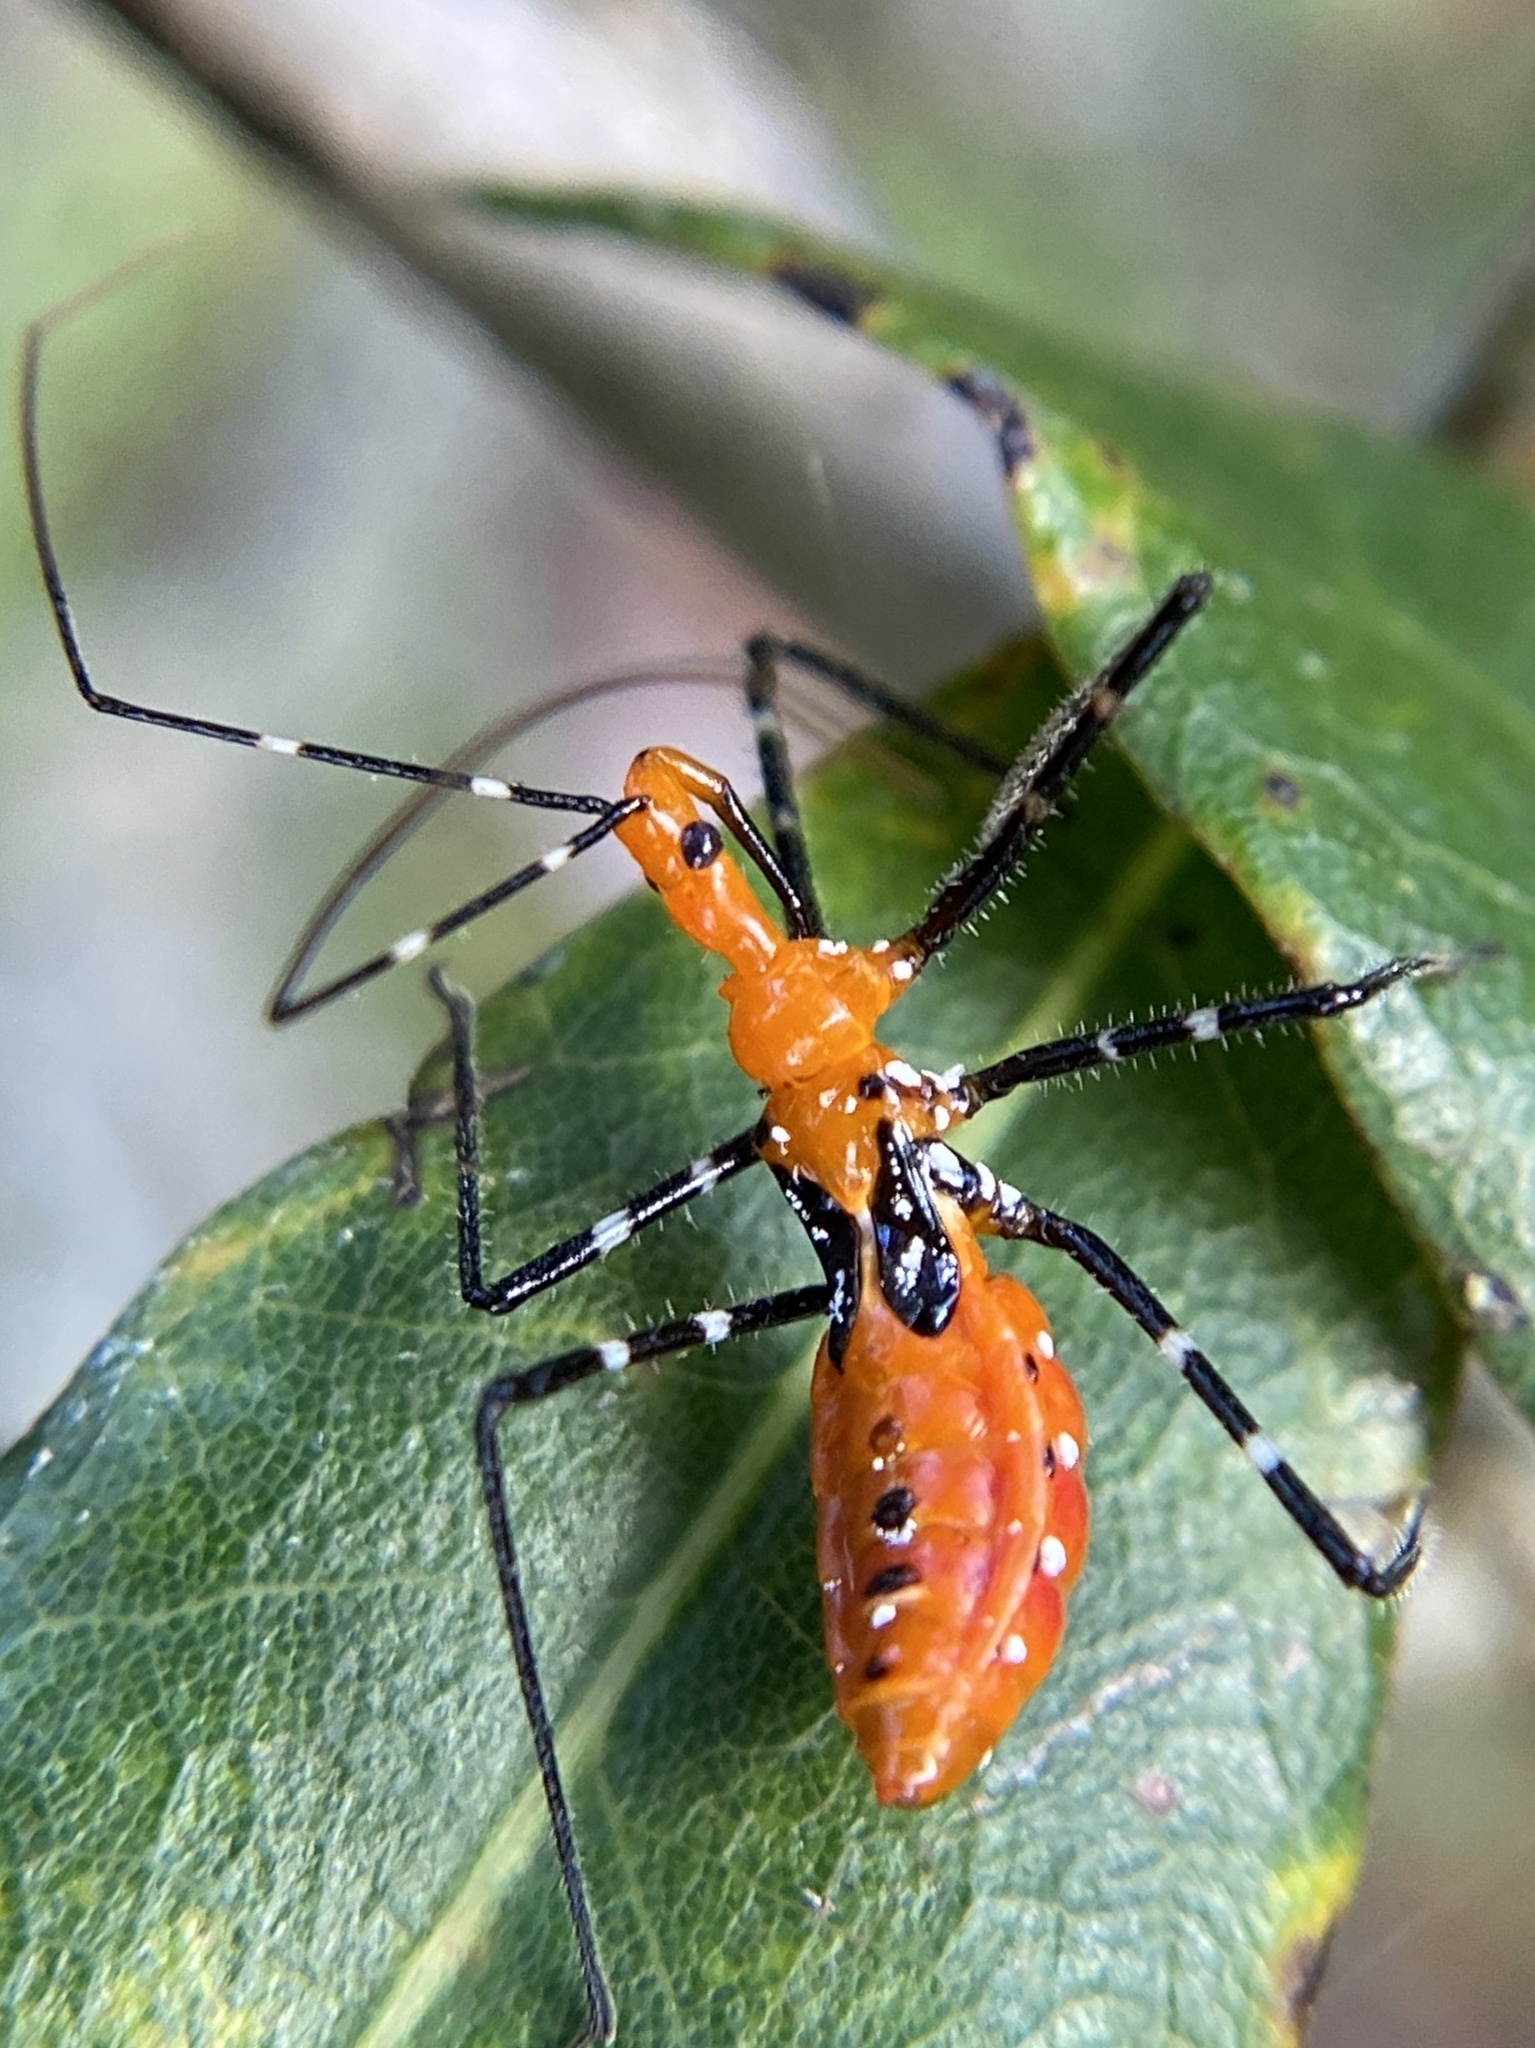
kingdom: Animalia
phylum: Arthropoda
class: Insecta
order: Hemiptera
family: Reduviidae
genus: Zelus
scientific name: Zelus longipes
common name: Milkweed assassin bug
